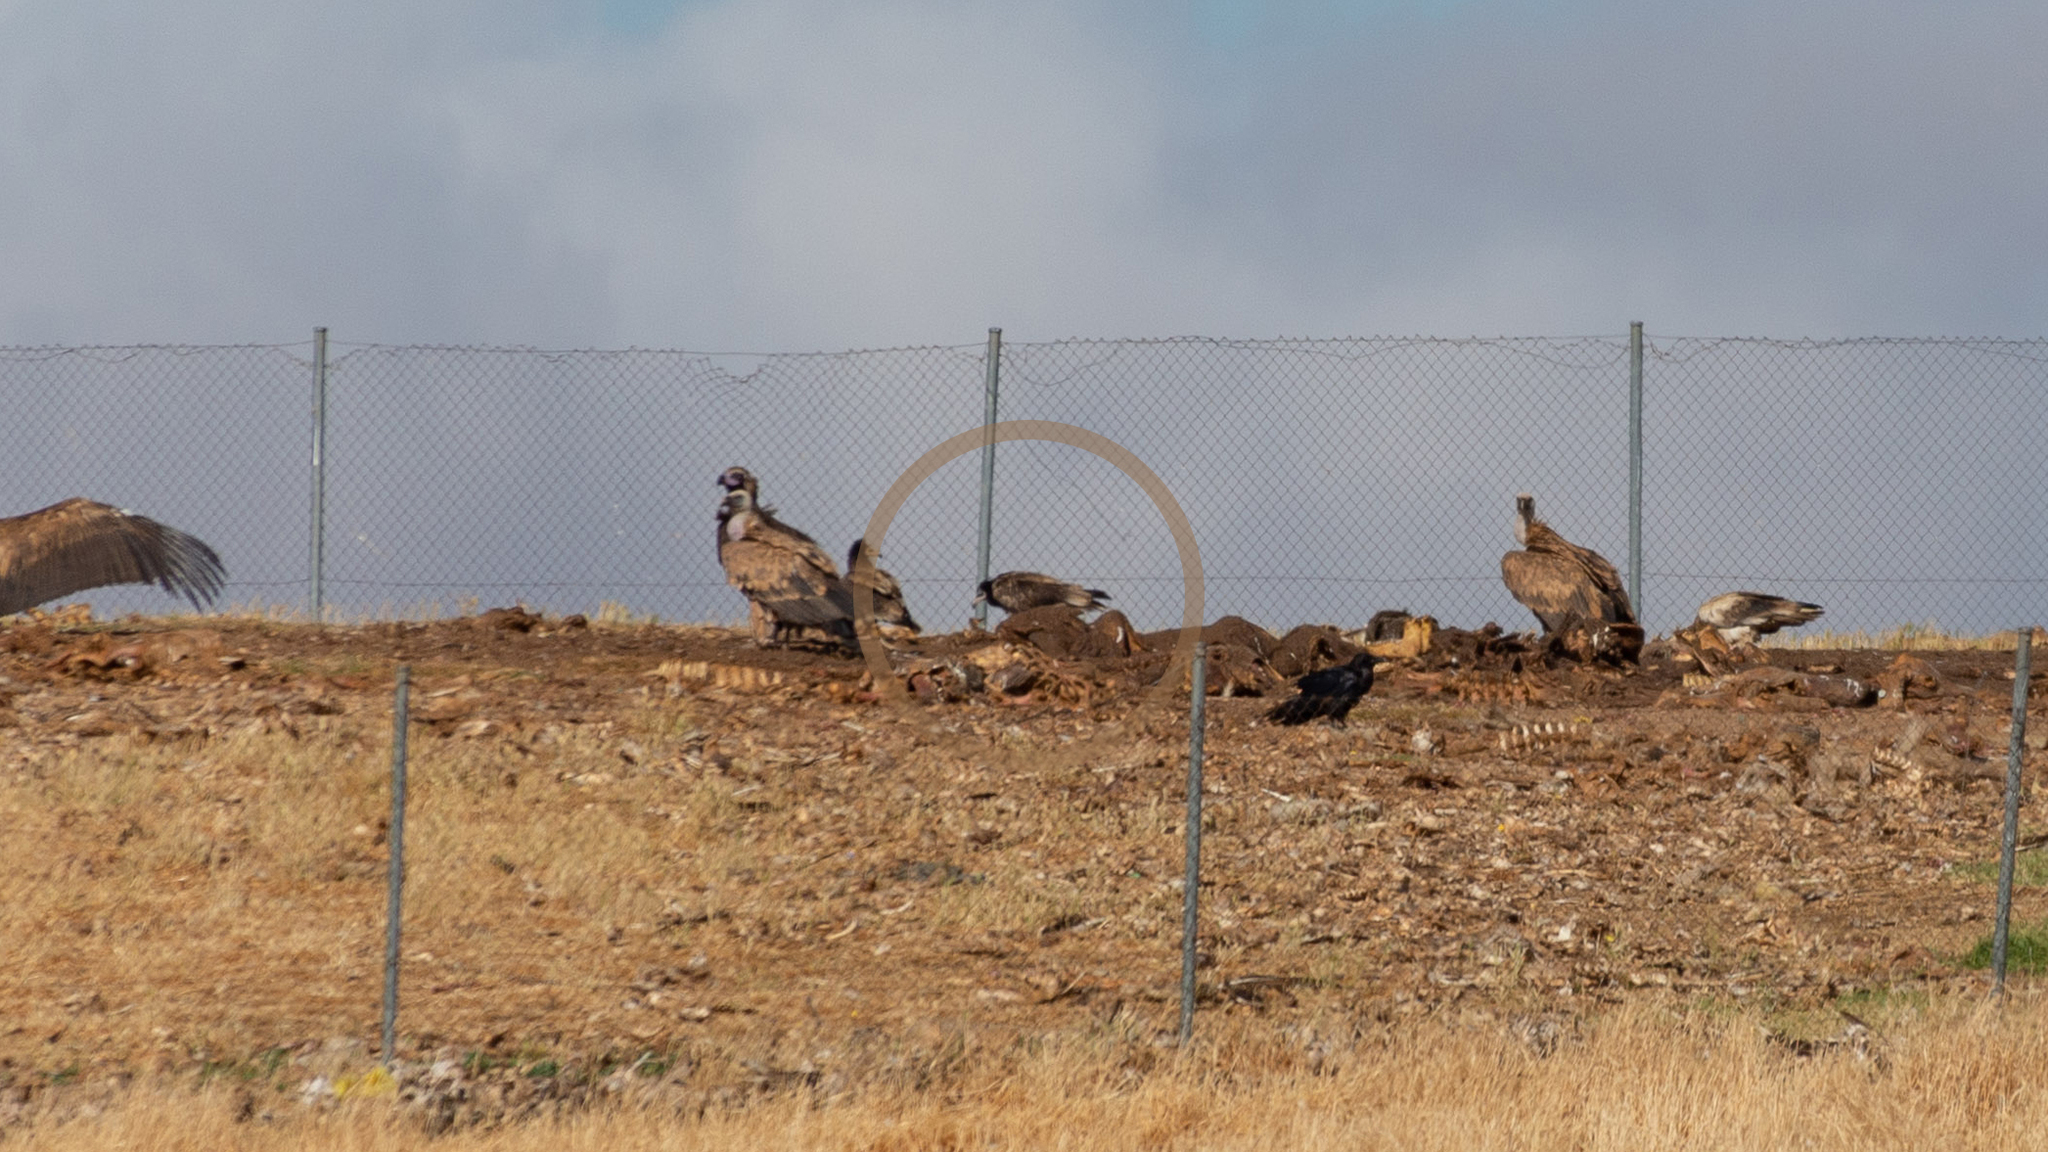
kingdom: Animalia
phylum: Chordata
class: Aves
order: Accipitriformes
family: Accipitridae
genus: Neophron
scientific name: Neophron percnopterus
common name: Egyptian vulture
